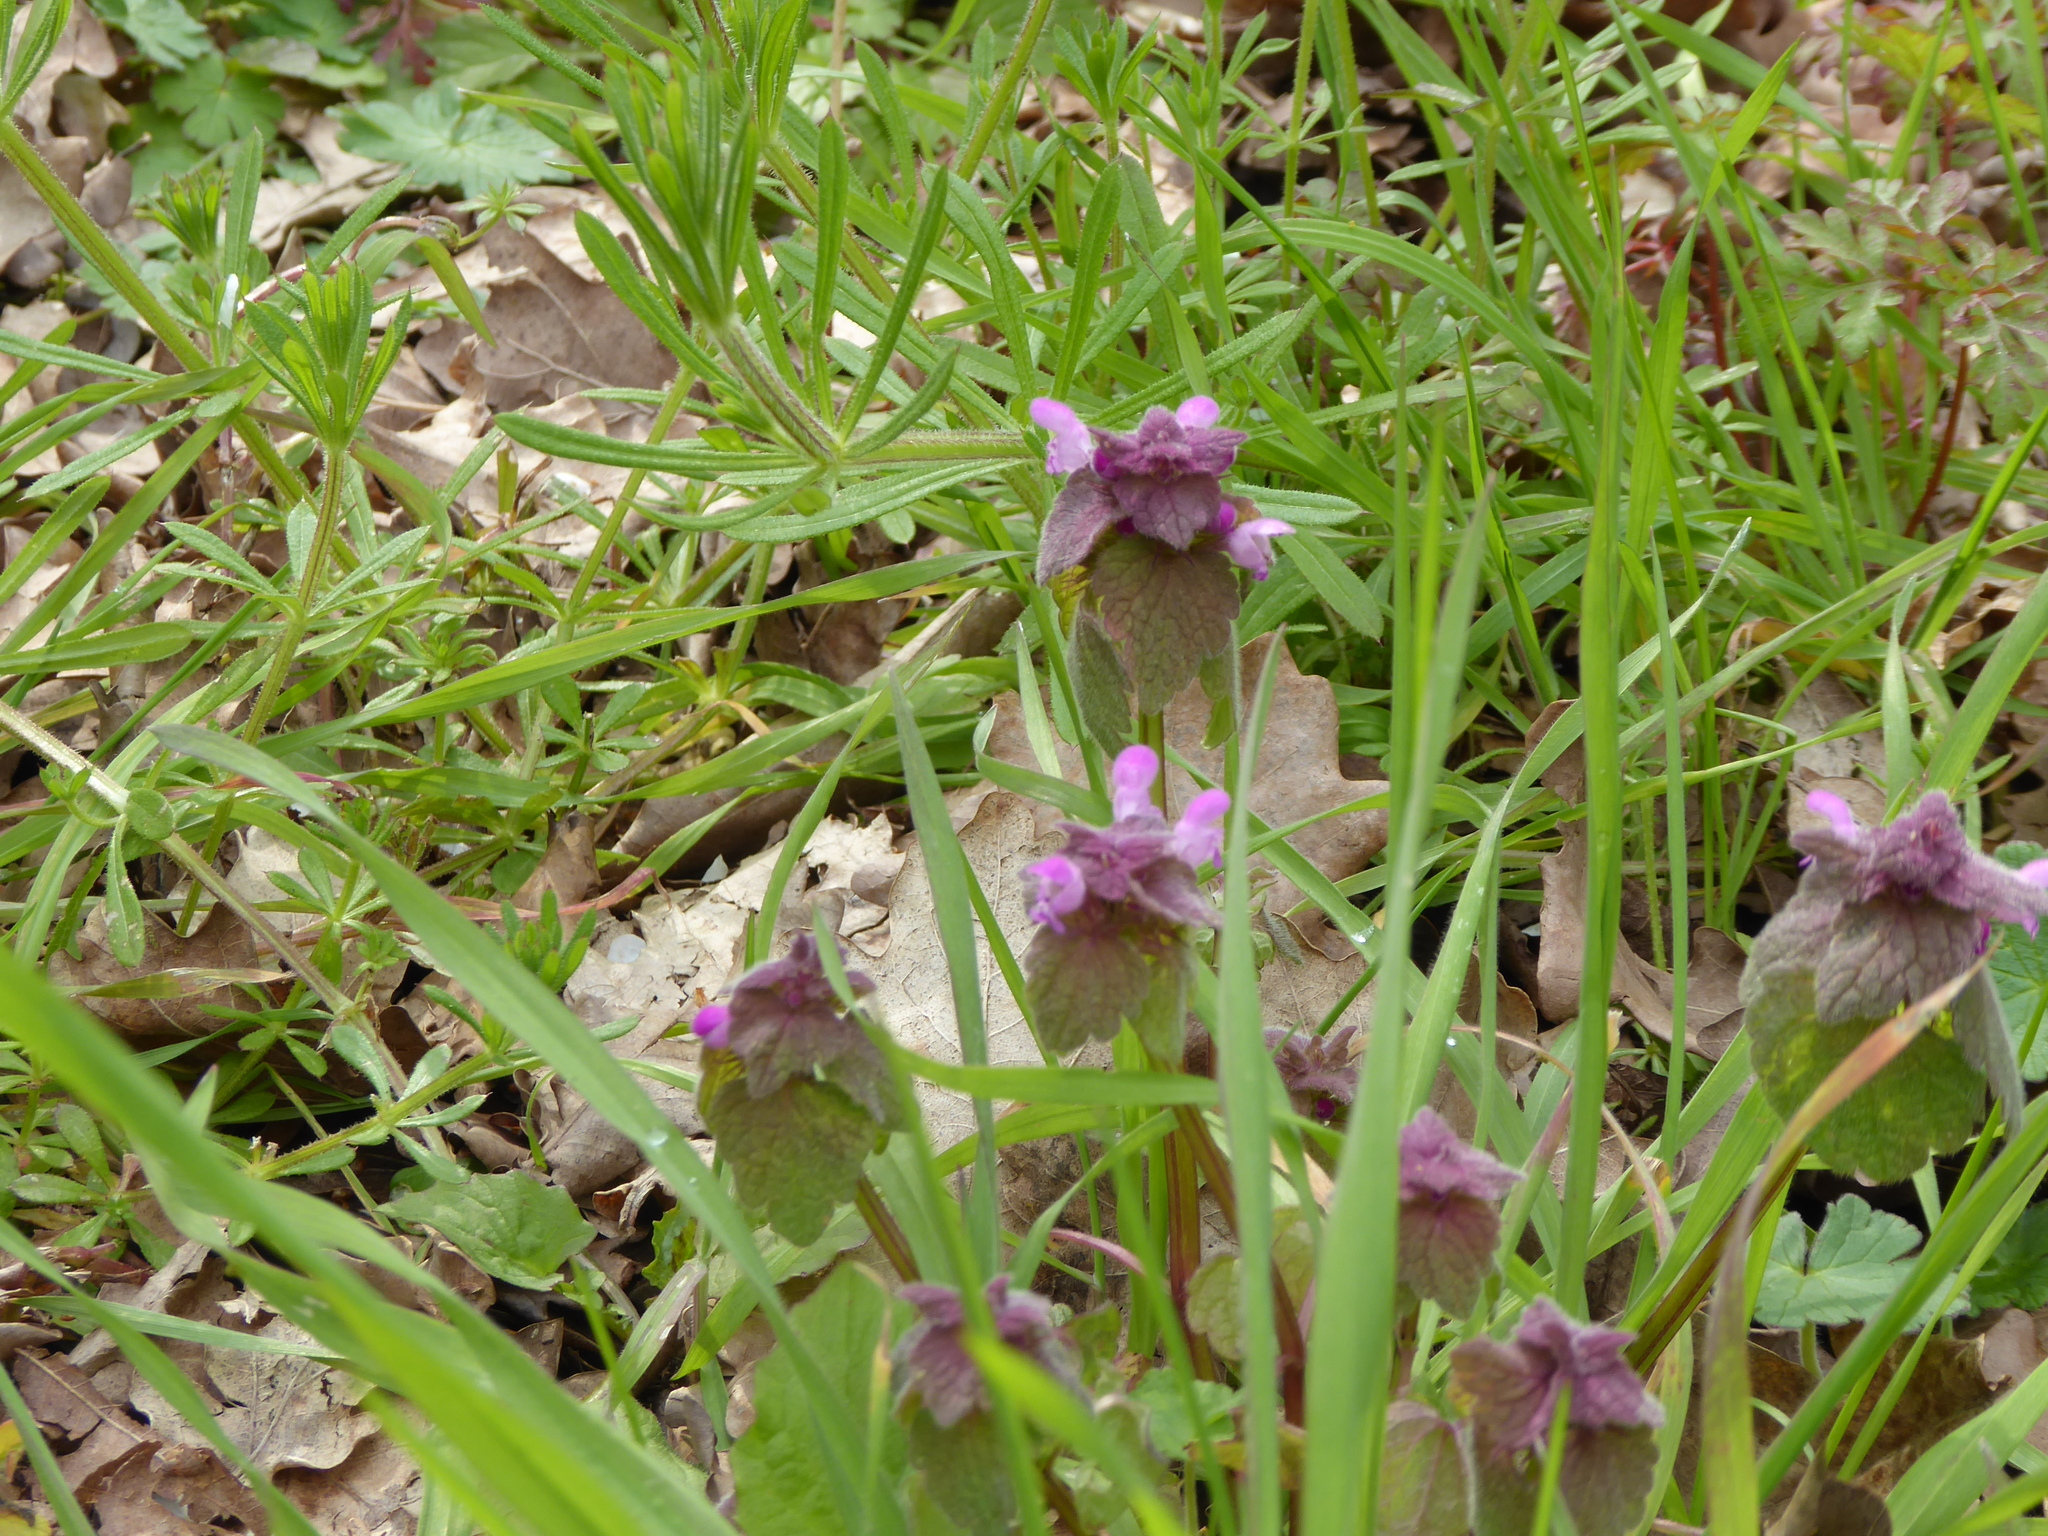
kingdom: Plantae
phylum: Tracheophyta
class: Magnoliopsida
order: Lamiales
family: Lamiaceae
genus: Lamium
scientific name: Lamium purpureum
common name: Red dead-nettle
